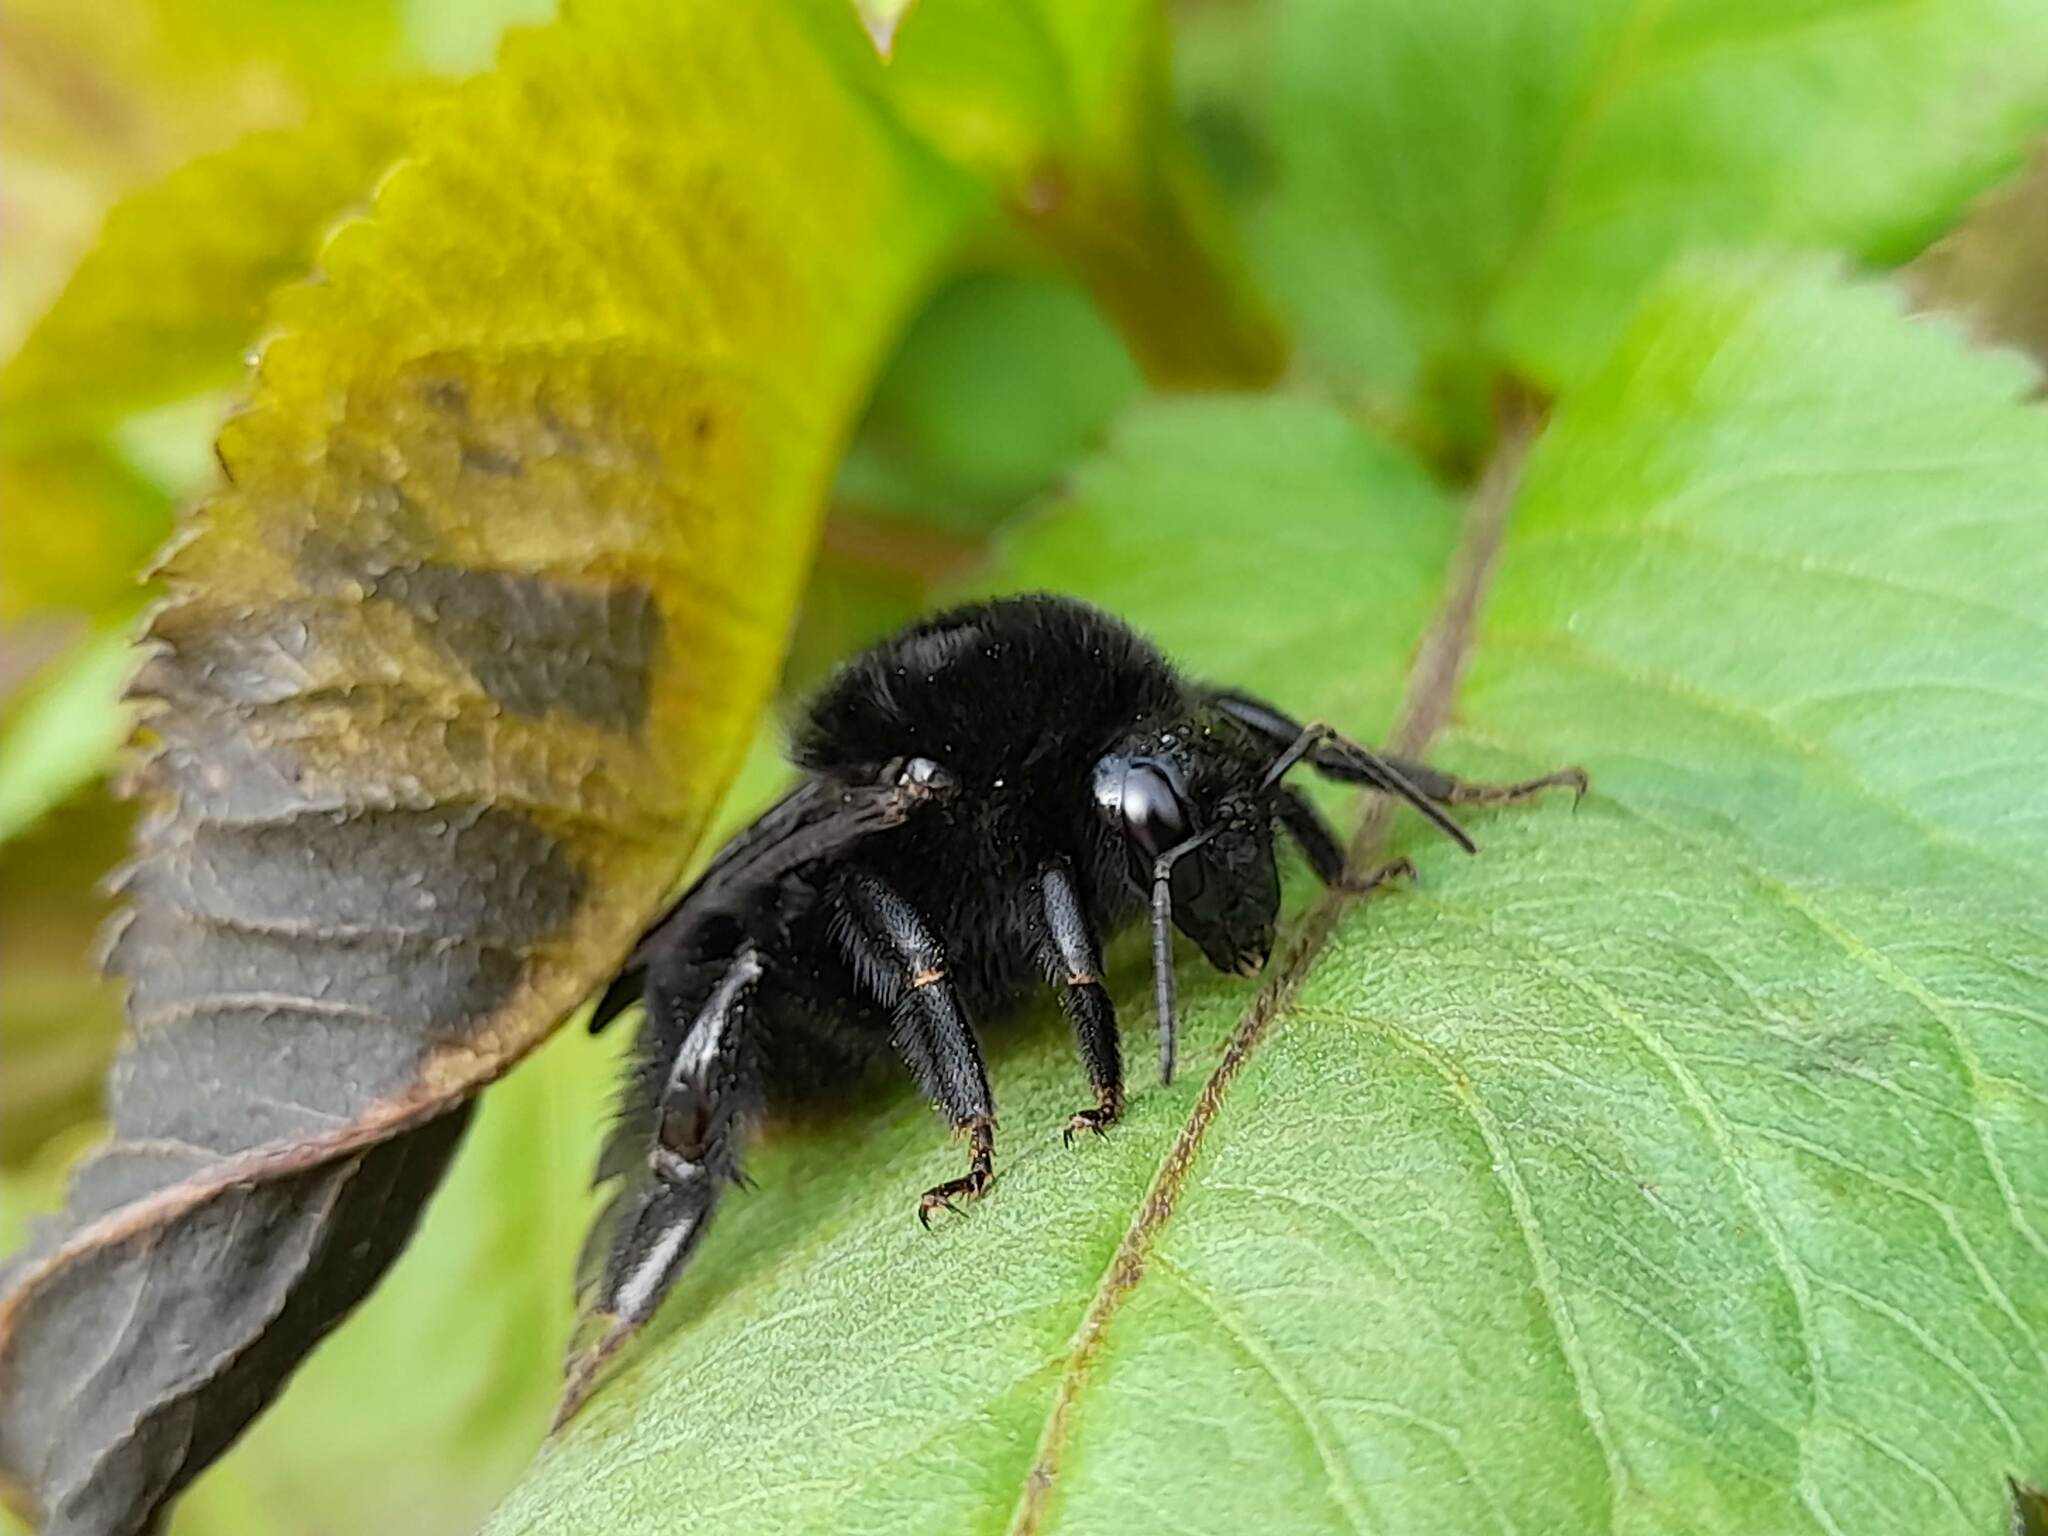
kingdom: Animalia
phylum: Arthropoda
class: Insecta
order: Hymenoptera
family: Apidae
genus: Bombus
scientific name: Bombus pauloensis
